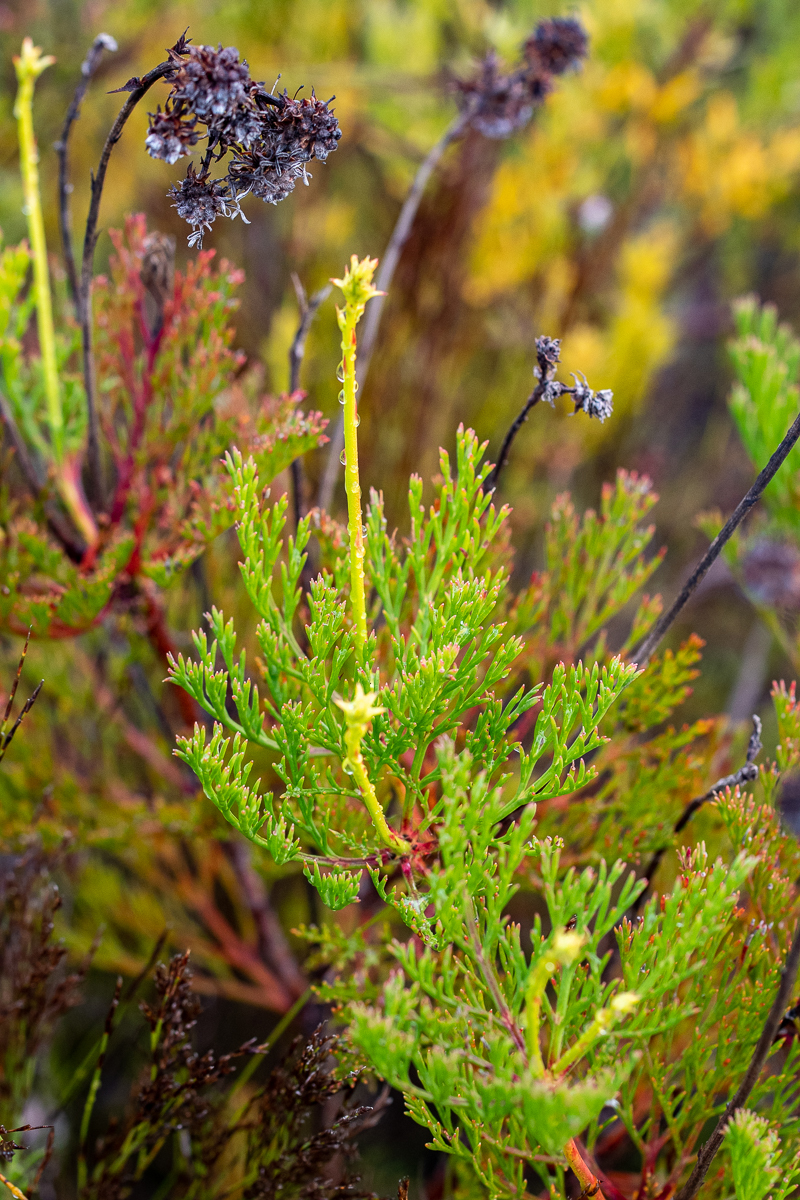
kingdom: Plantae
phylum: Tracheophyta
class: Magnoliopsida
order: Proteales
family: Proteaceae
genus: Serruria
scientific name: Serruria elongata
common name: Long-stalk spiderhead
